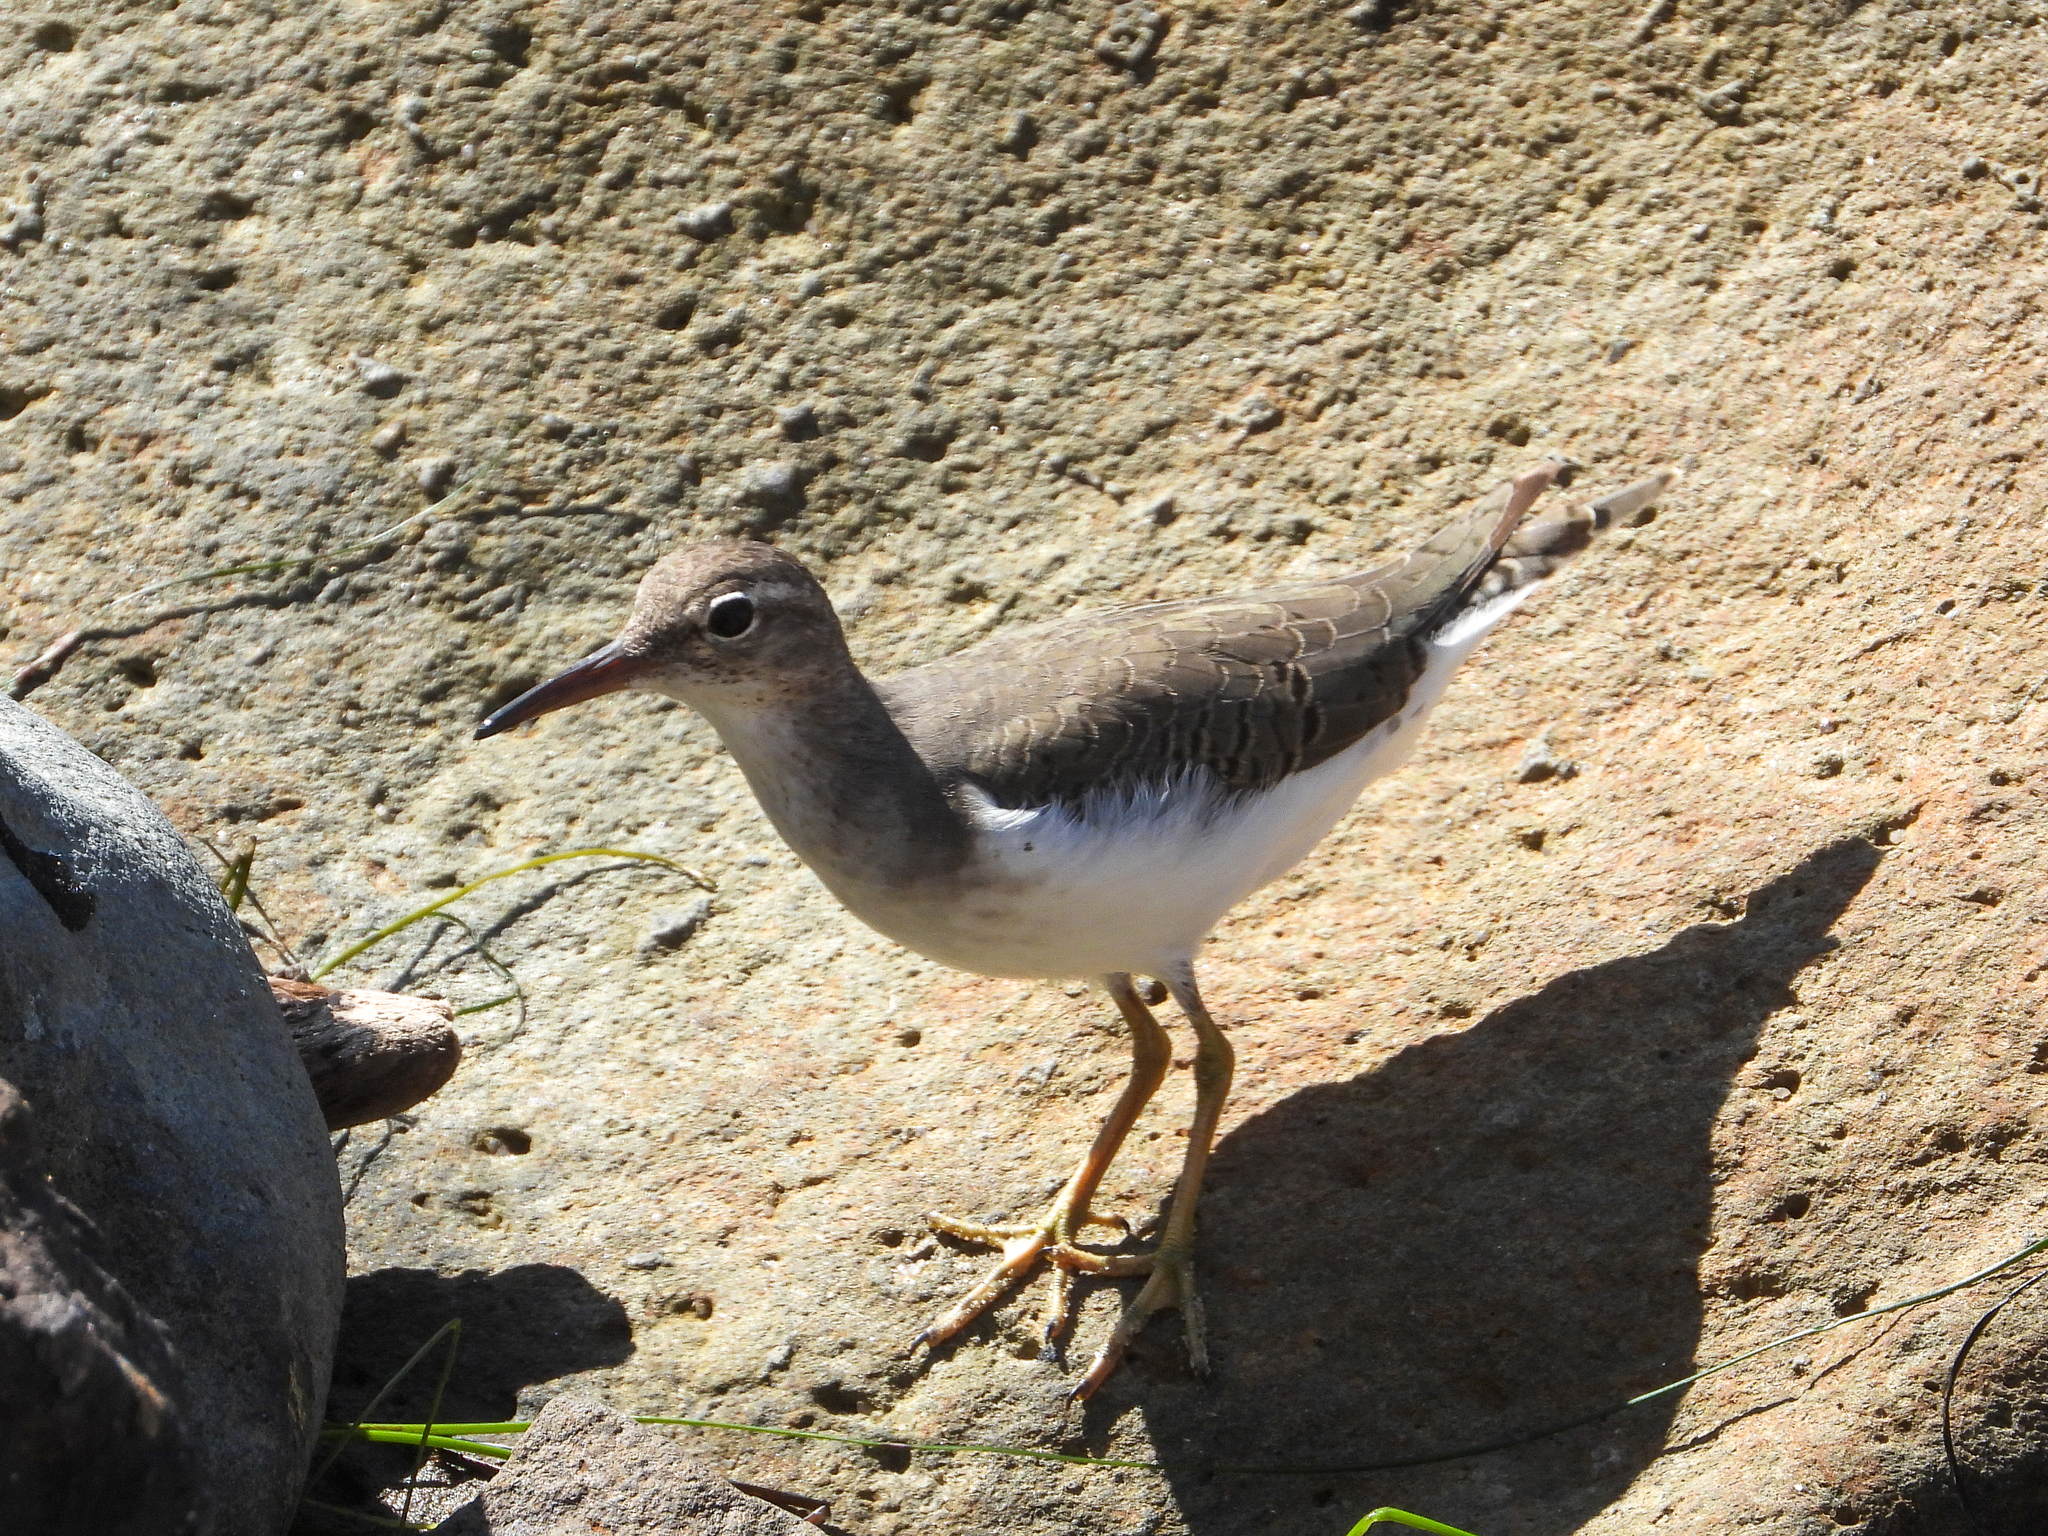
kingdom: Animalia
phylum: Chordata
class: Aves
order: Charadriiformes
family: Scolopacidae
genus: Actitis
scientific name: Actitis macularius
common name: Spotted sandpiper
